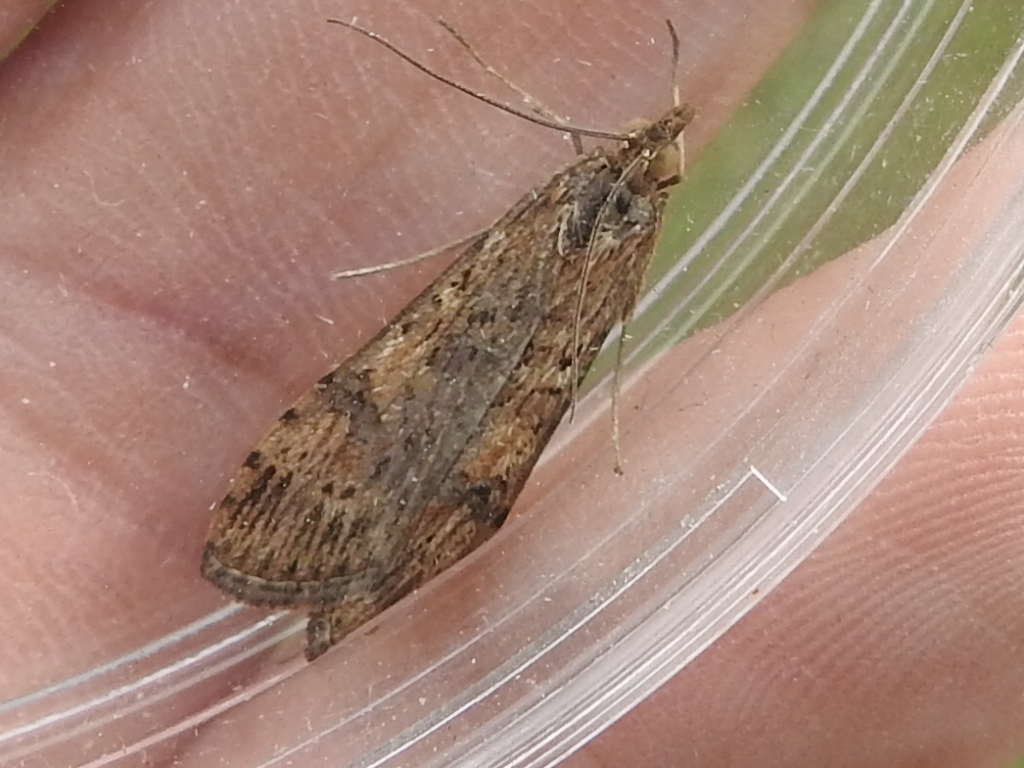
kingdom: Animalia
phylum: Arthropoda
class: Insecta
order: Lepidoptera
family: Crambidae
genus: Nomophila
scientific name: Nomophila nearctica
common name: American rush veneer
